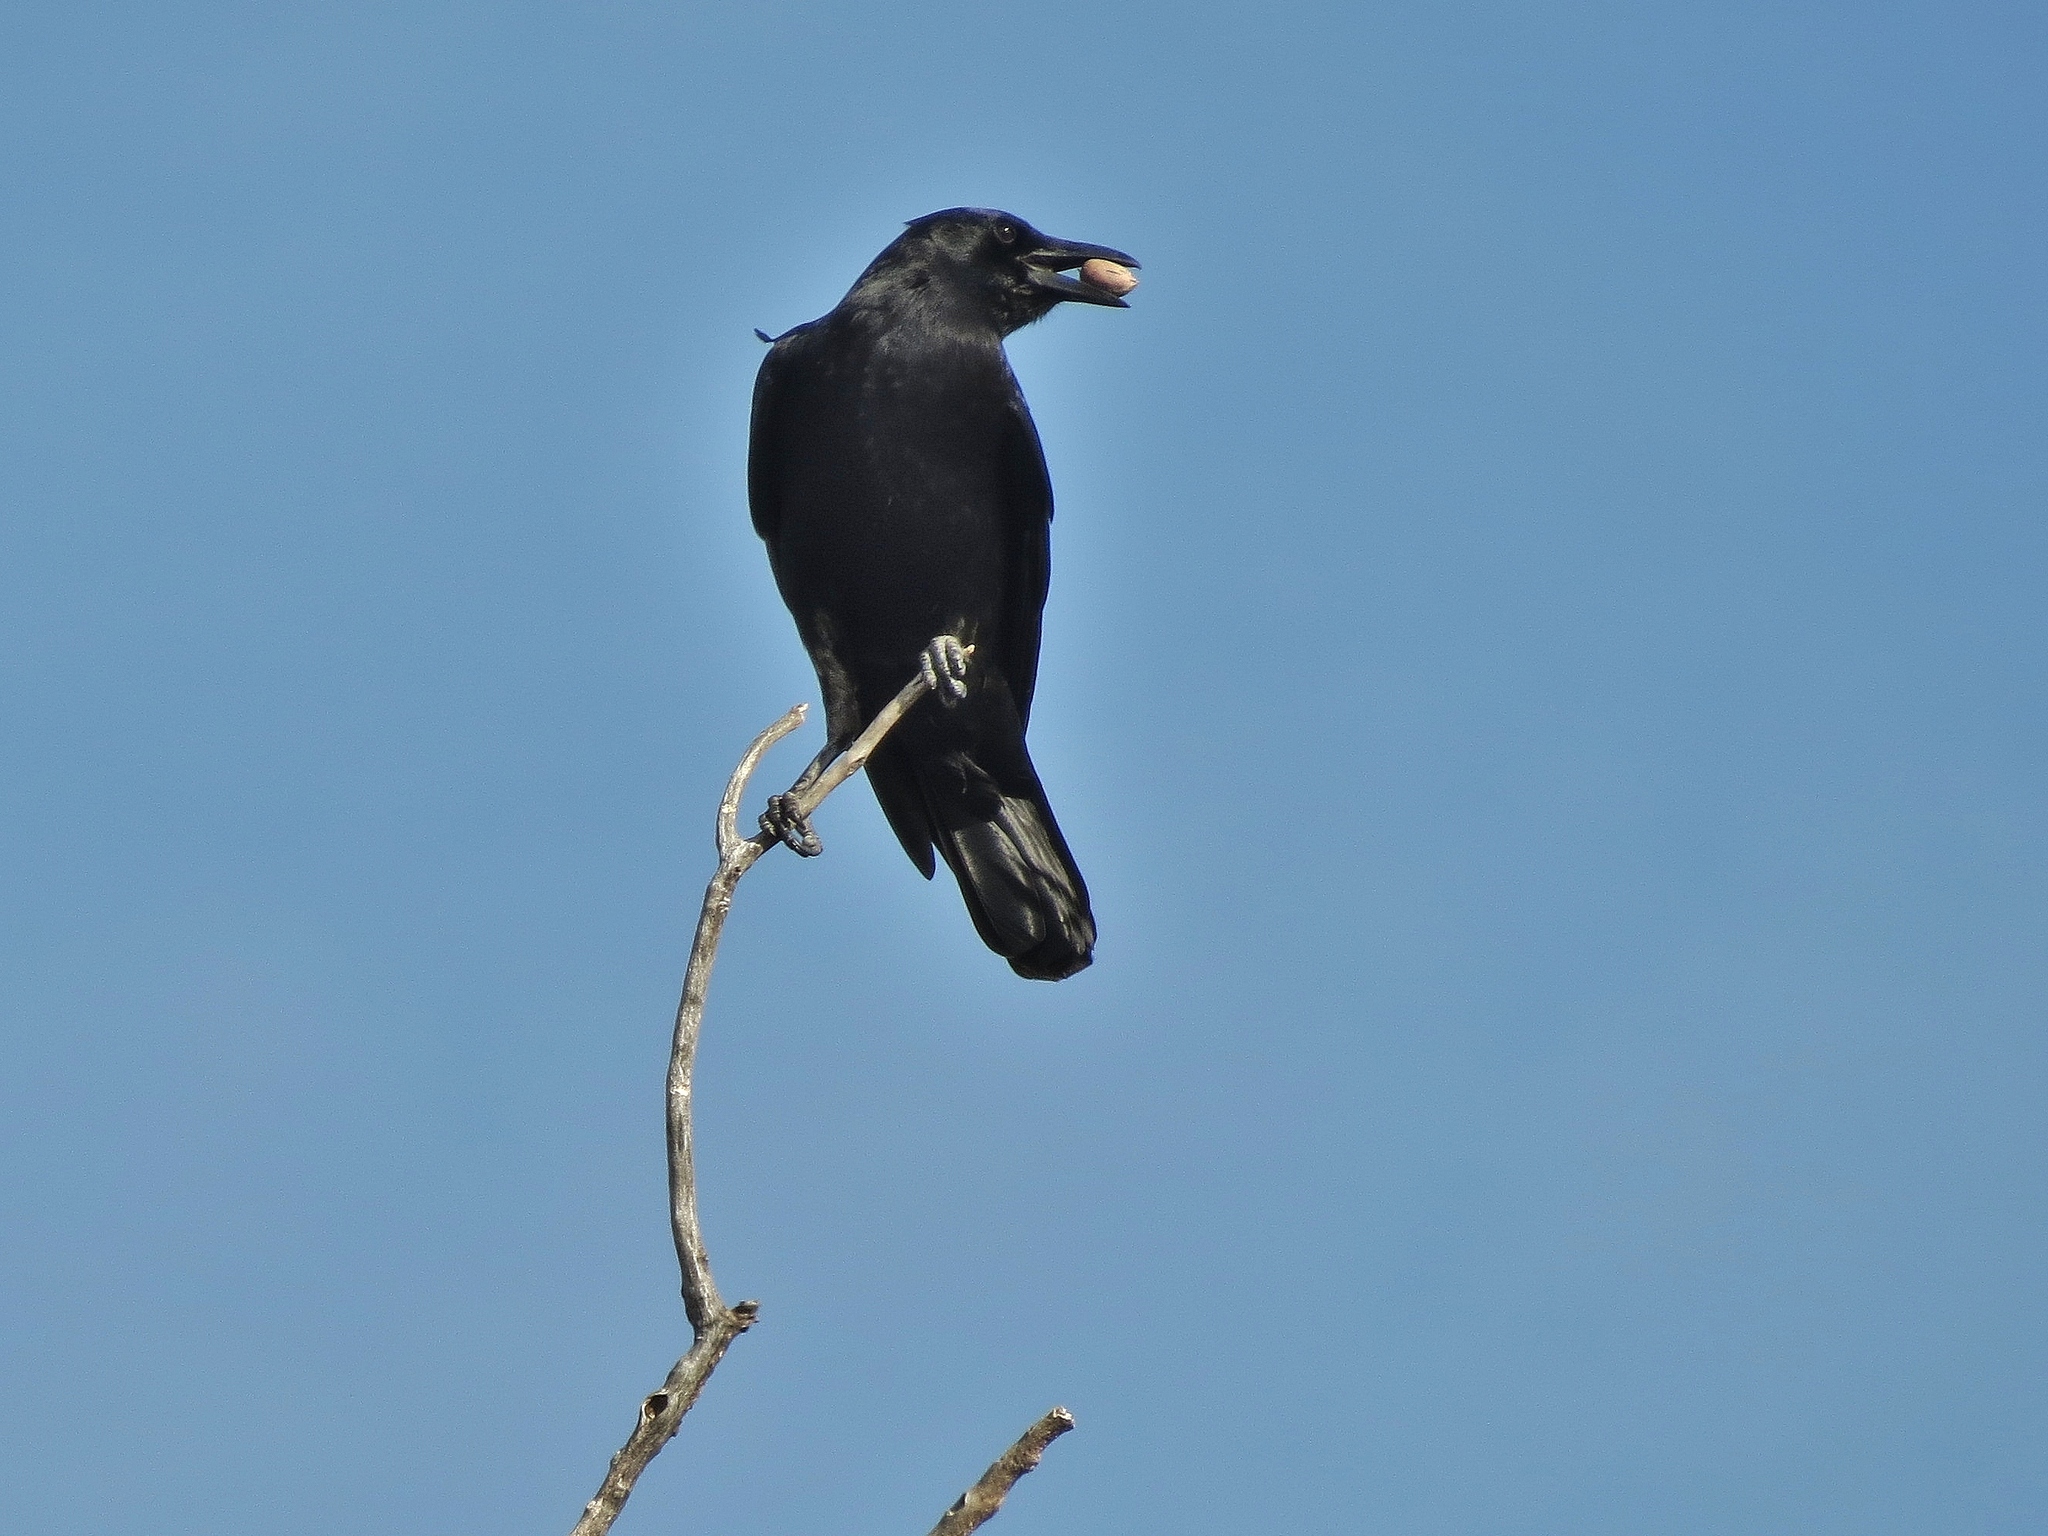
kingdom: Animalia
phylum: Chordata
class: Aves
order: Passeriformes
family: Corvidae
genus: Corvus
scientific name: Corvus brachyrhynchos
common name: American crow
